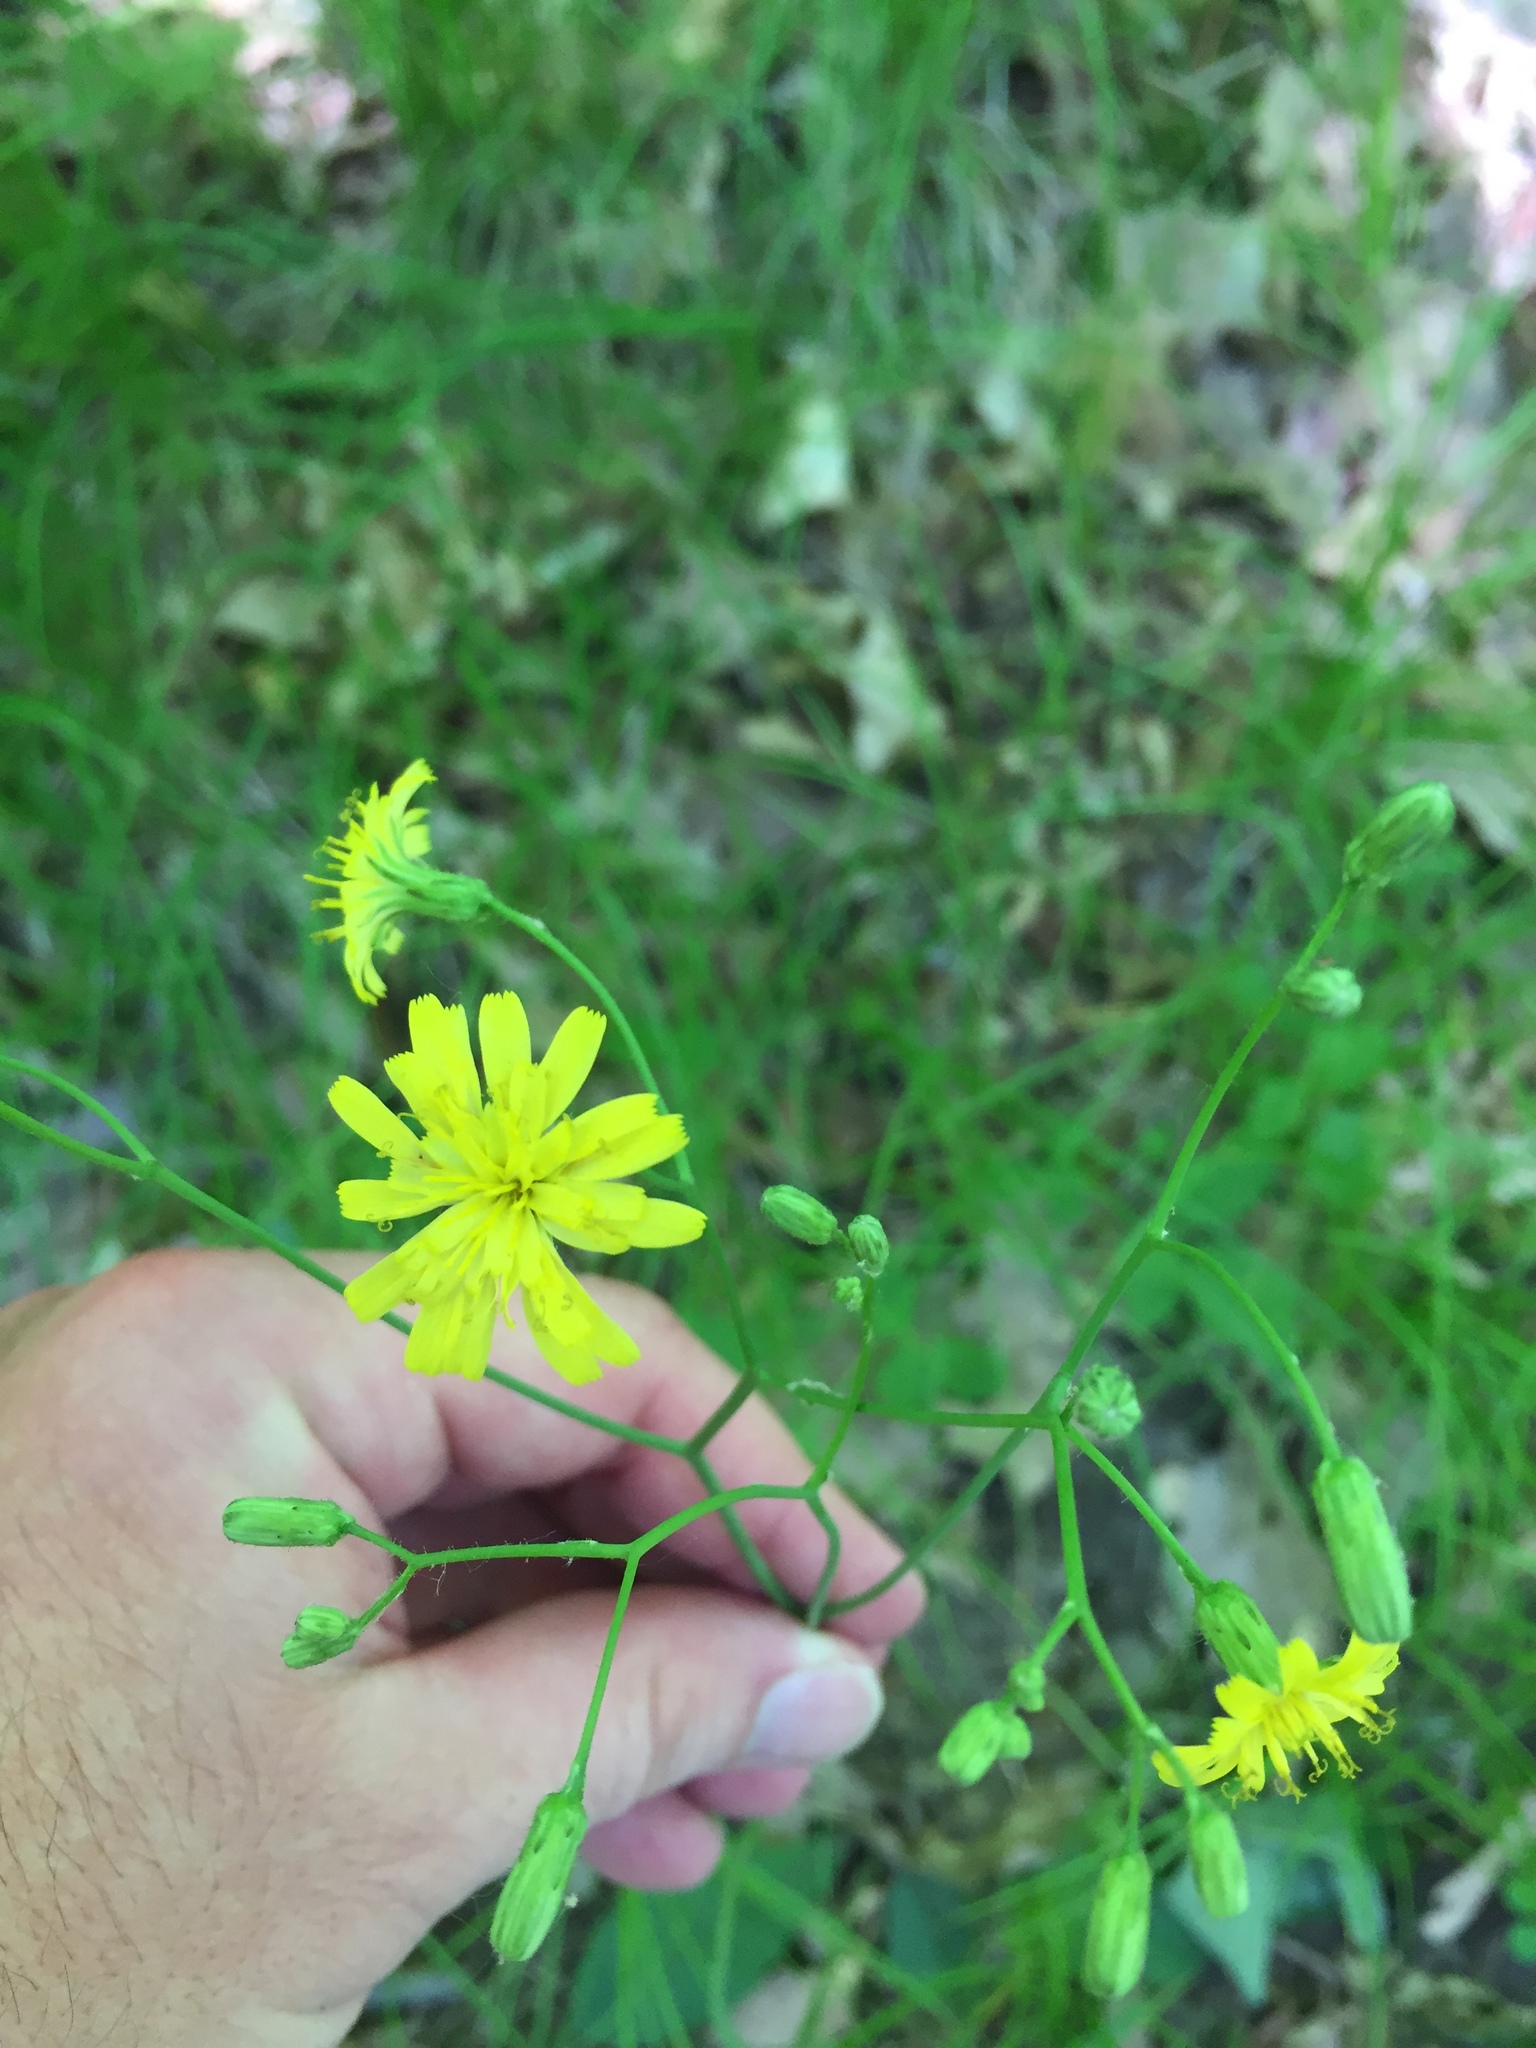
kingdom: Plantae
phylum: Tracheophyta
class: Magnoliopsida
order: Asterales
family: Asteraceae
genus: Hieracium
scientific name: Hieracium venosum
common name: Rattlesnake hawkweed
